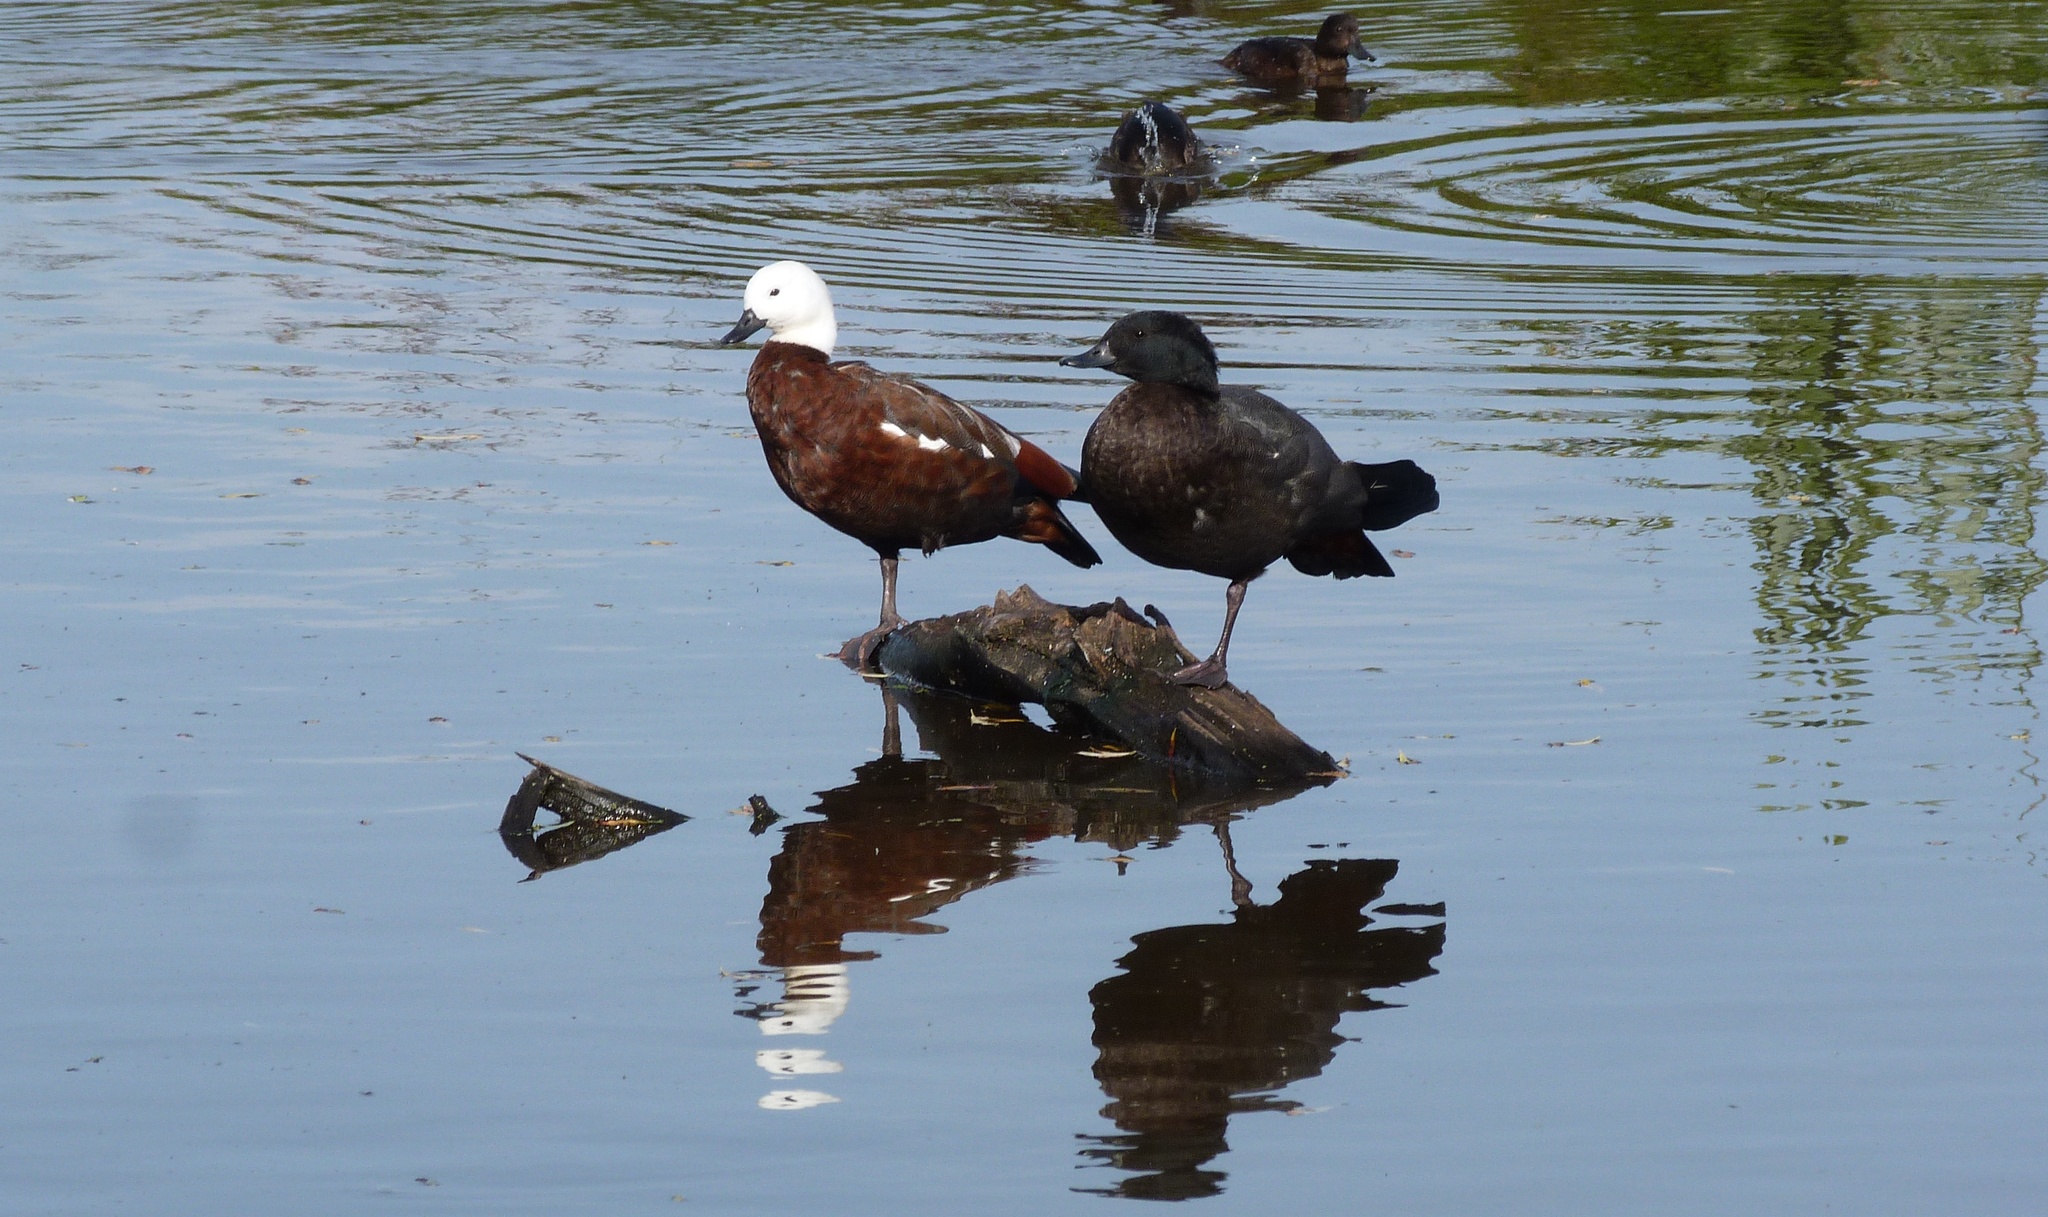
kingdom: Animalia
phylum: Chordata
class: Aves
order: Anseriformes
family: Anatidae
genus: Tadorna
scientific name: Tadorna variegata
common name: Paradise shelduck
